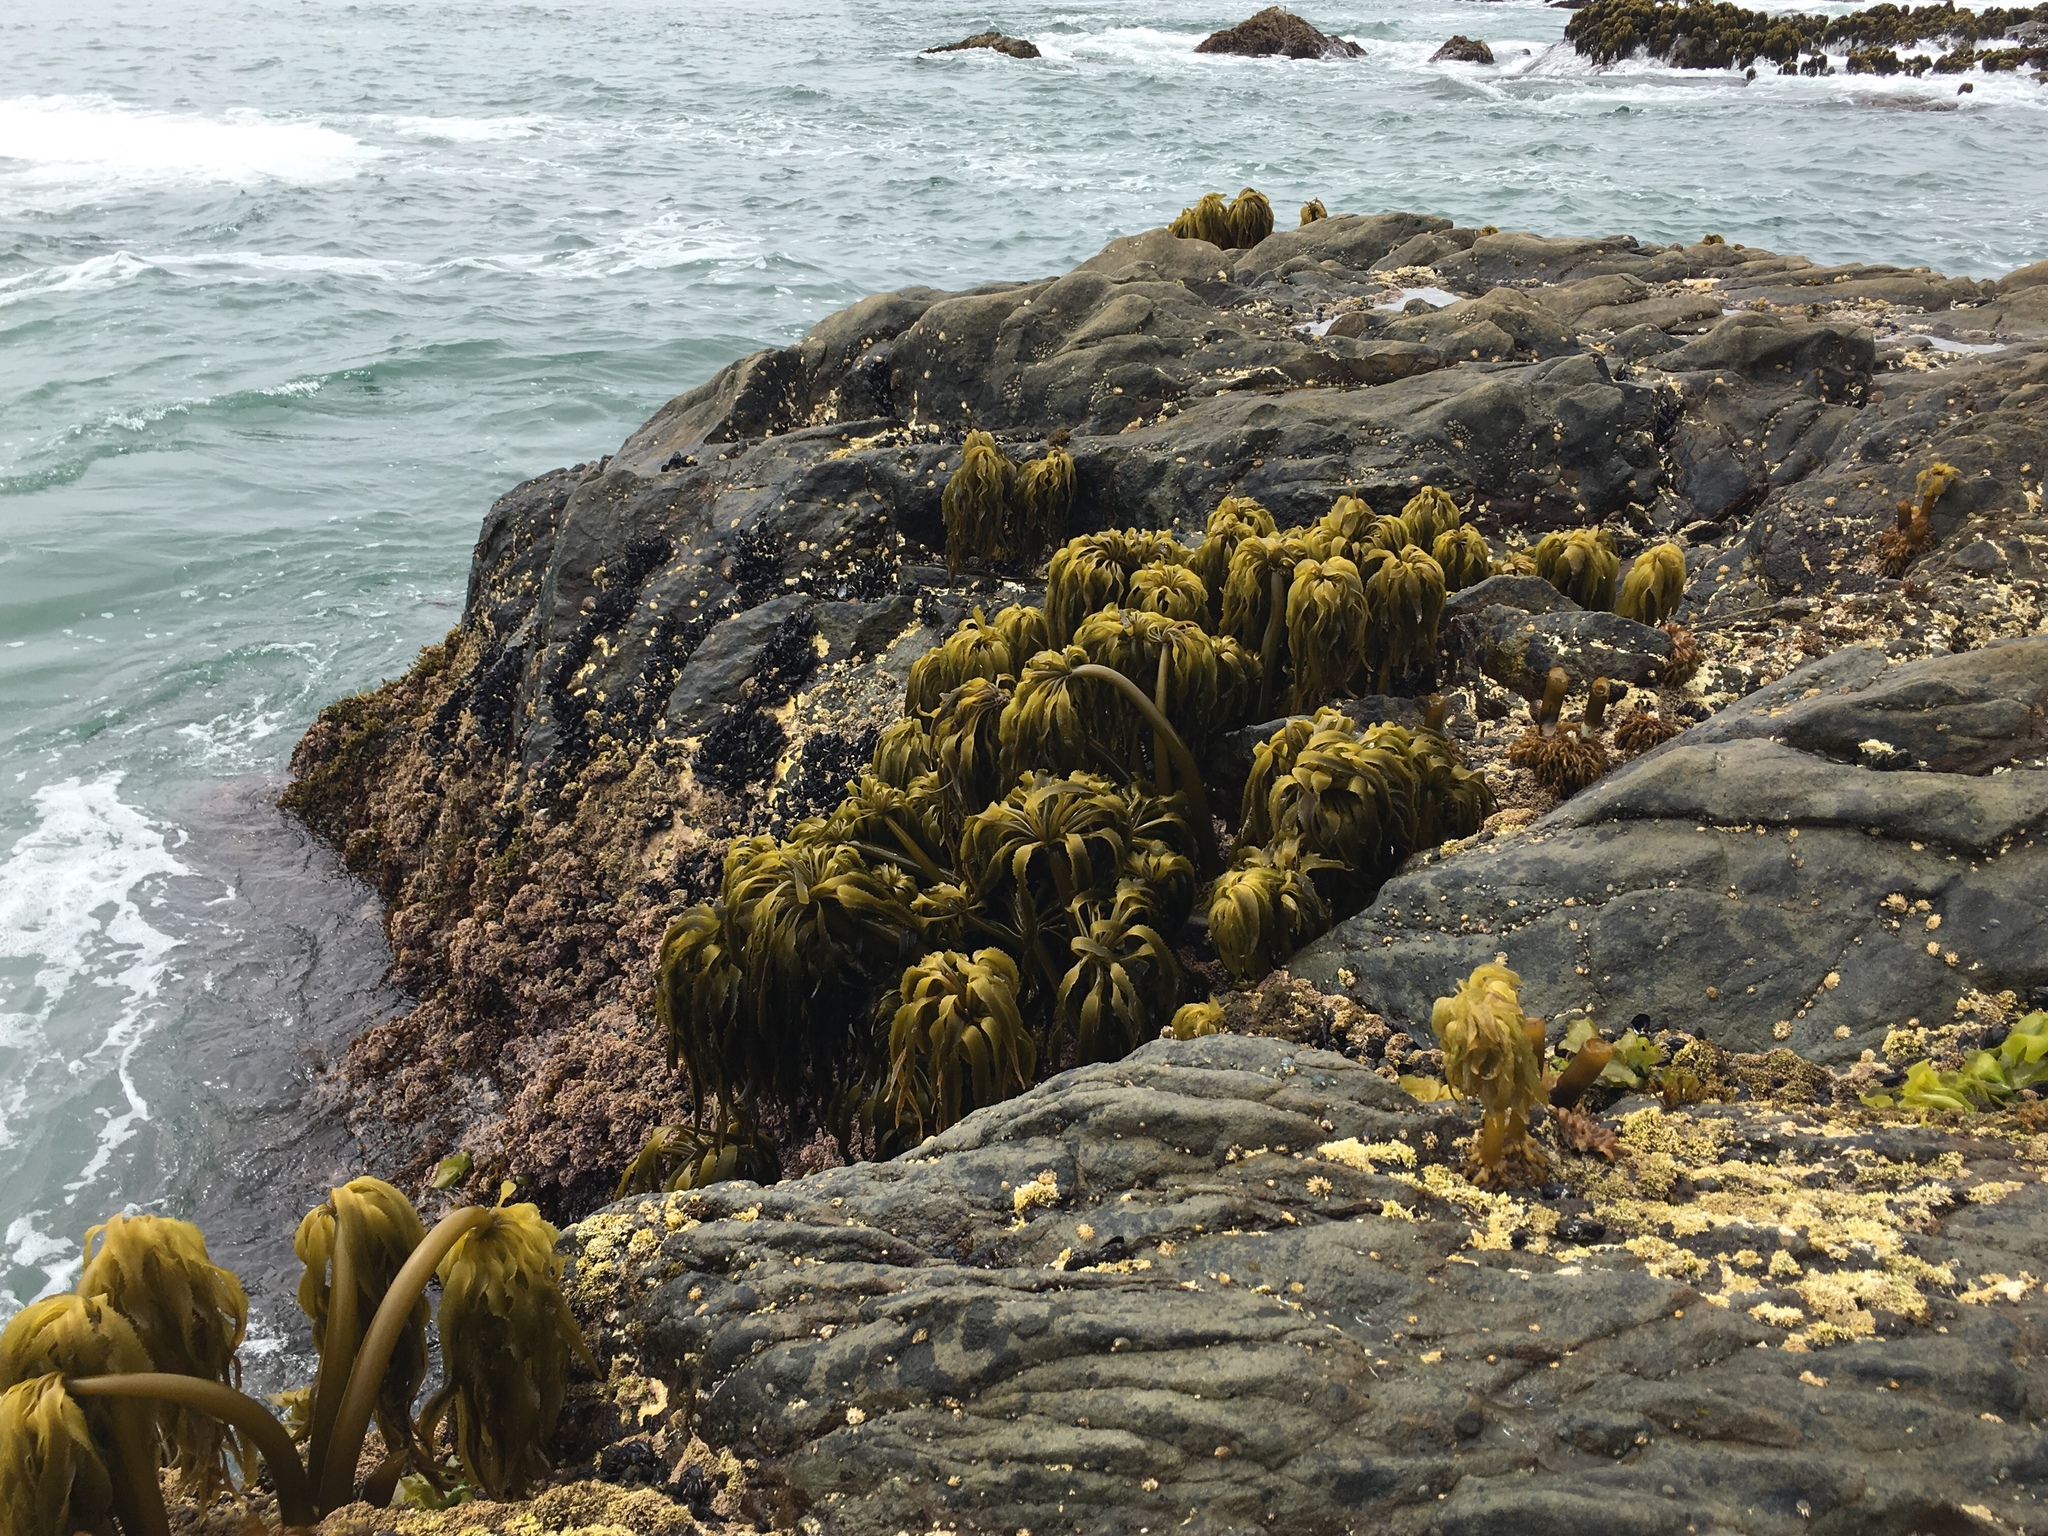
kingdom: Chromista
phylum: Ochrophyta
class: Phaeophyceae
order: Laminariales
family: Laminariaceae
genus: Postelsia
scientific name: Postelsia palmiformis
